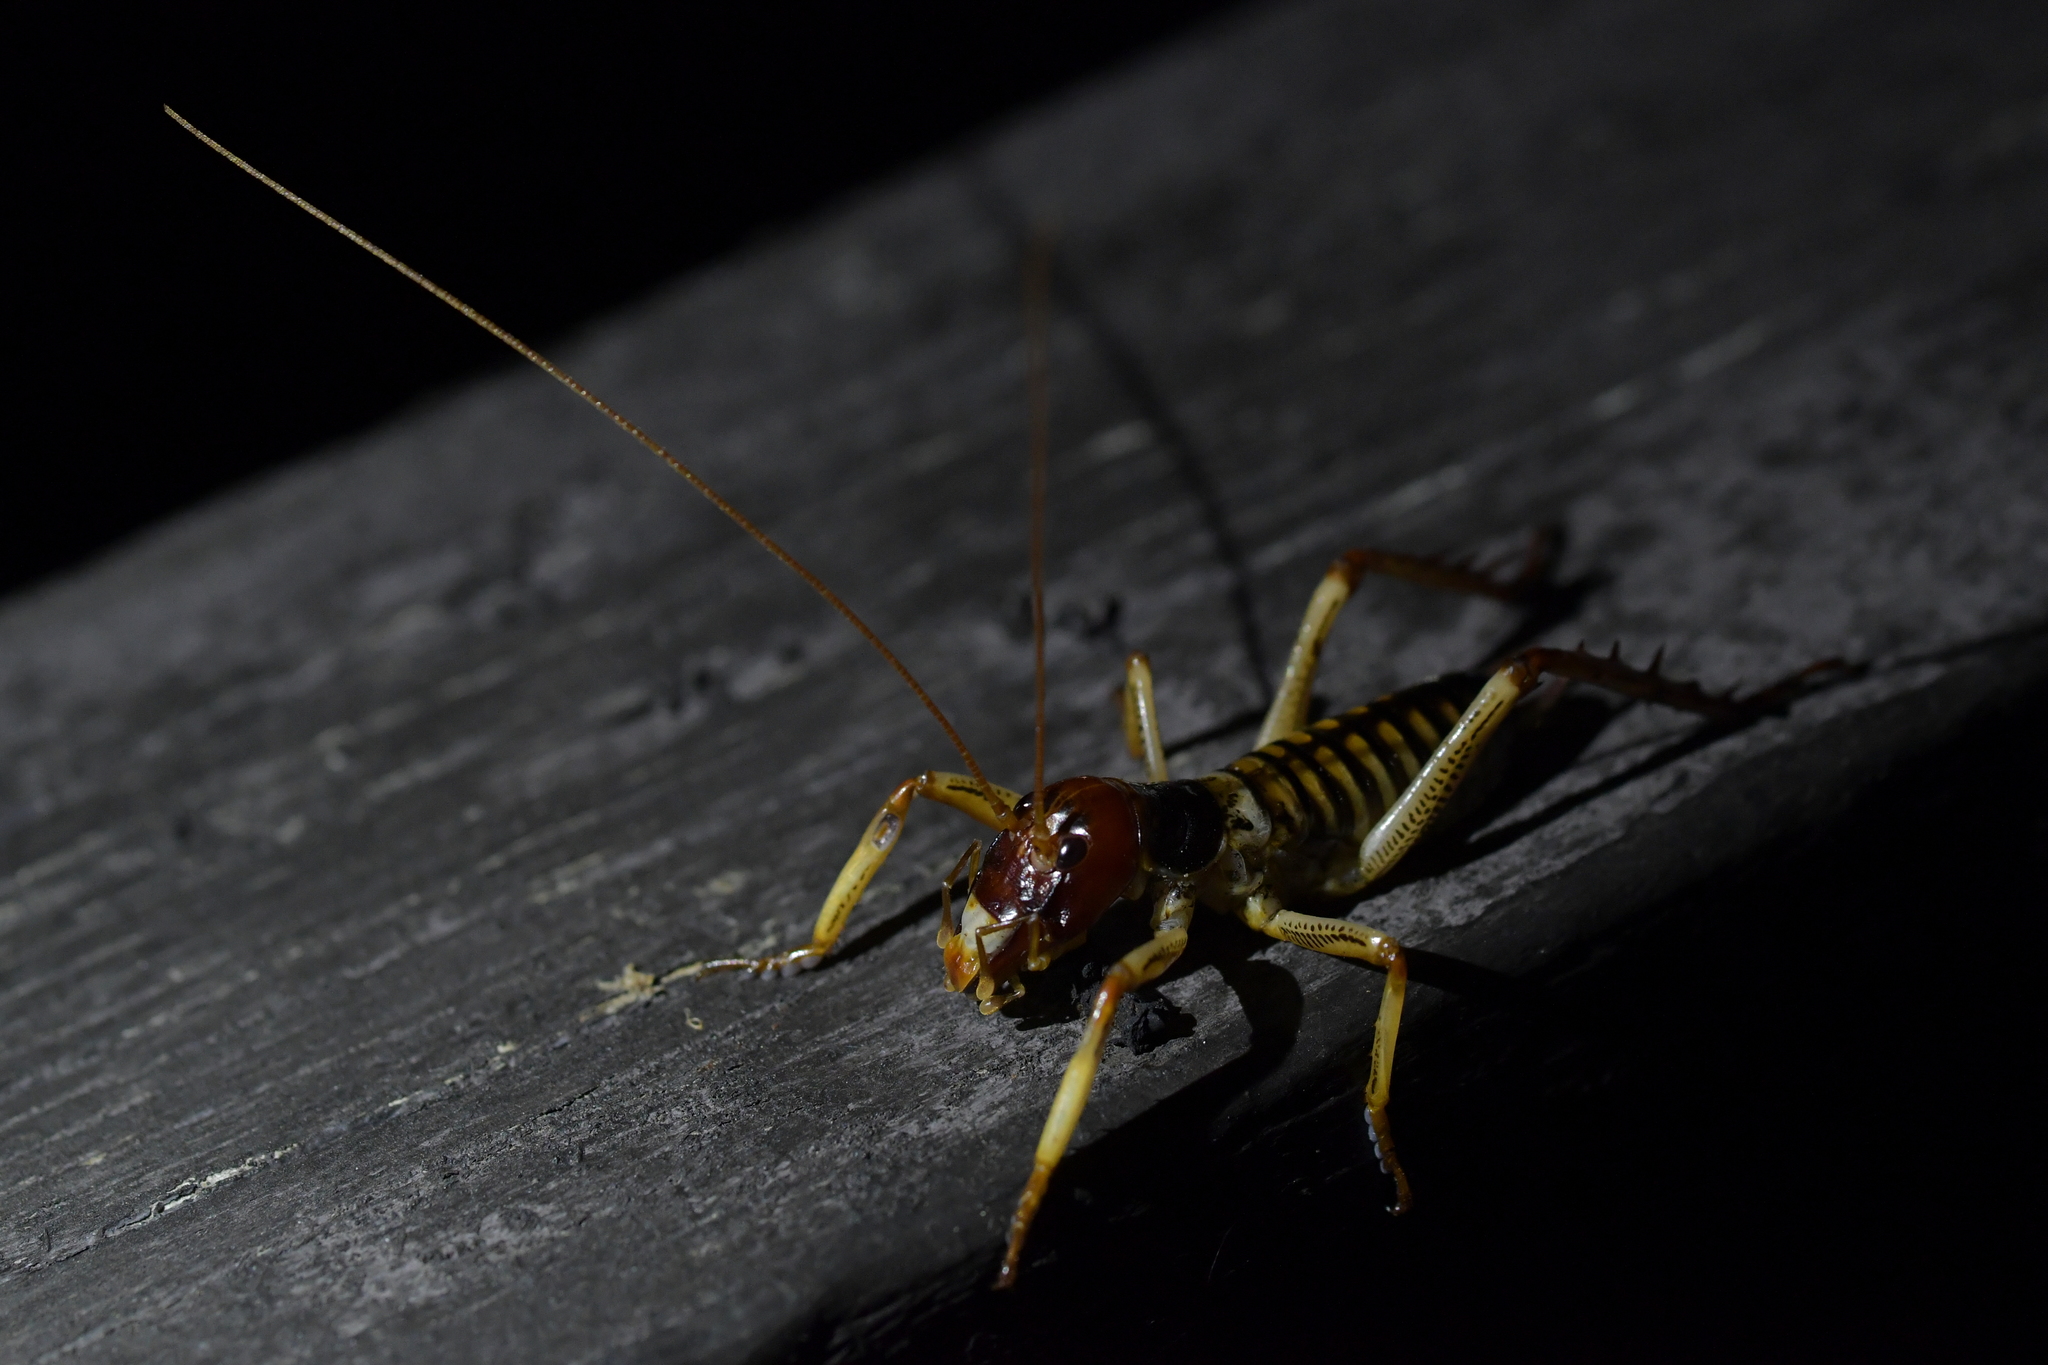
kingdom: Animalia
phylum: Arthropoda
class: Insecta
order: Orthoptera
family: Anostostomatidae
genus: Hemideina
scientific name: Hemideina crassidens
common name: Wellington tree weta
